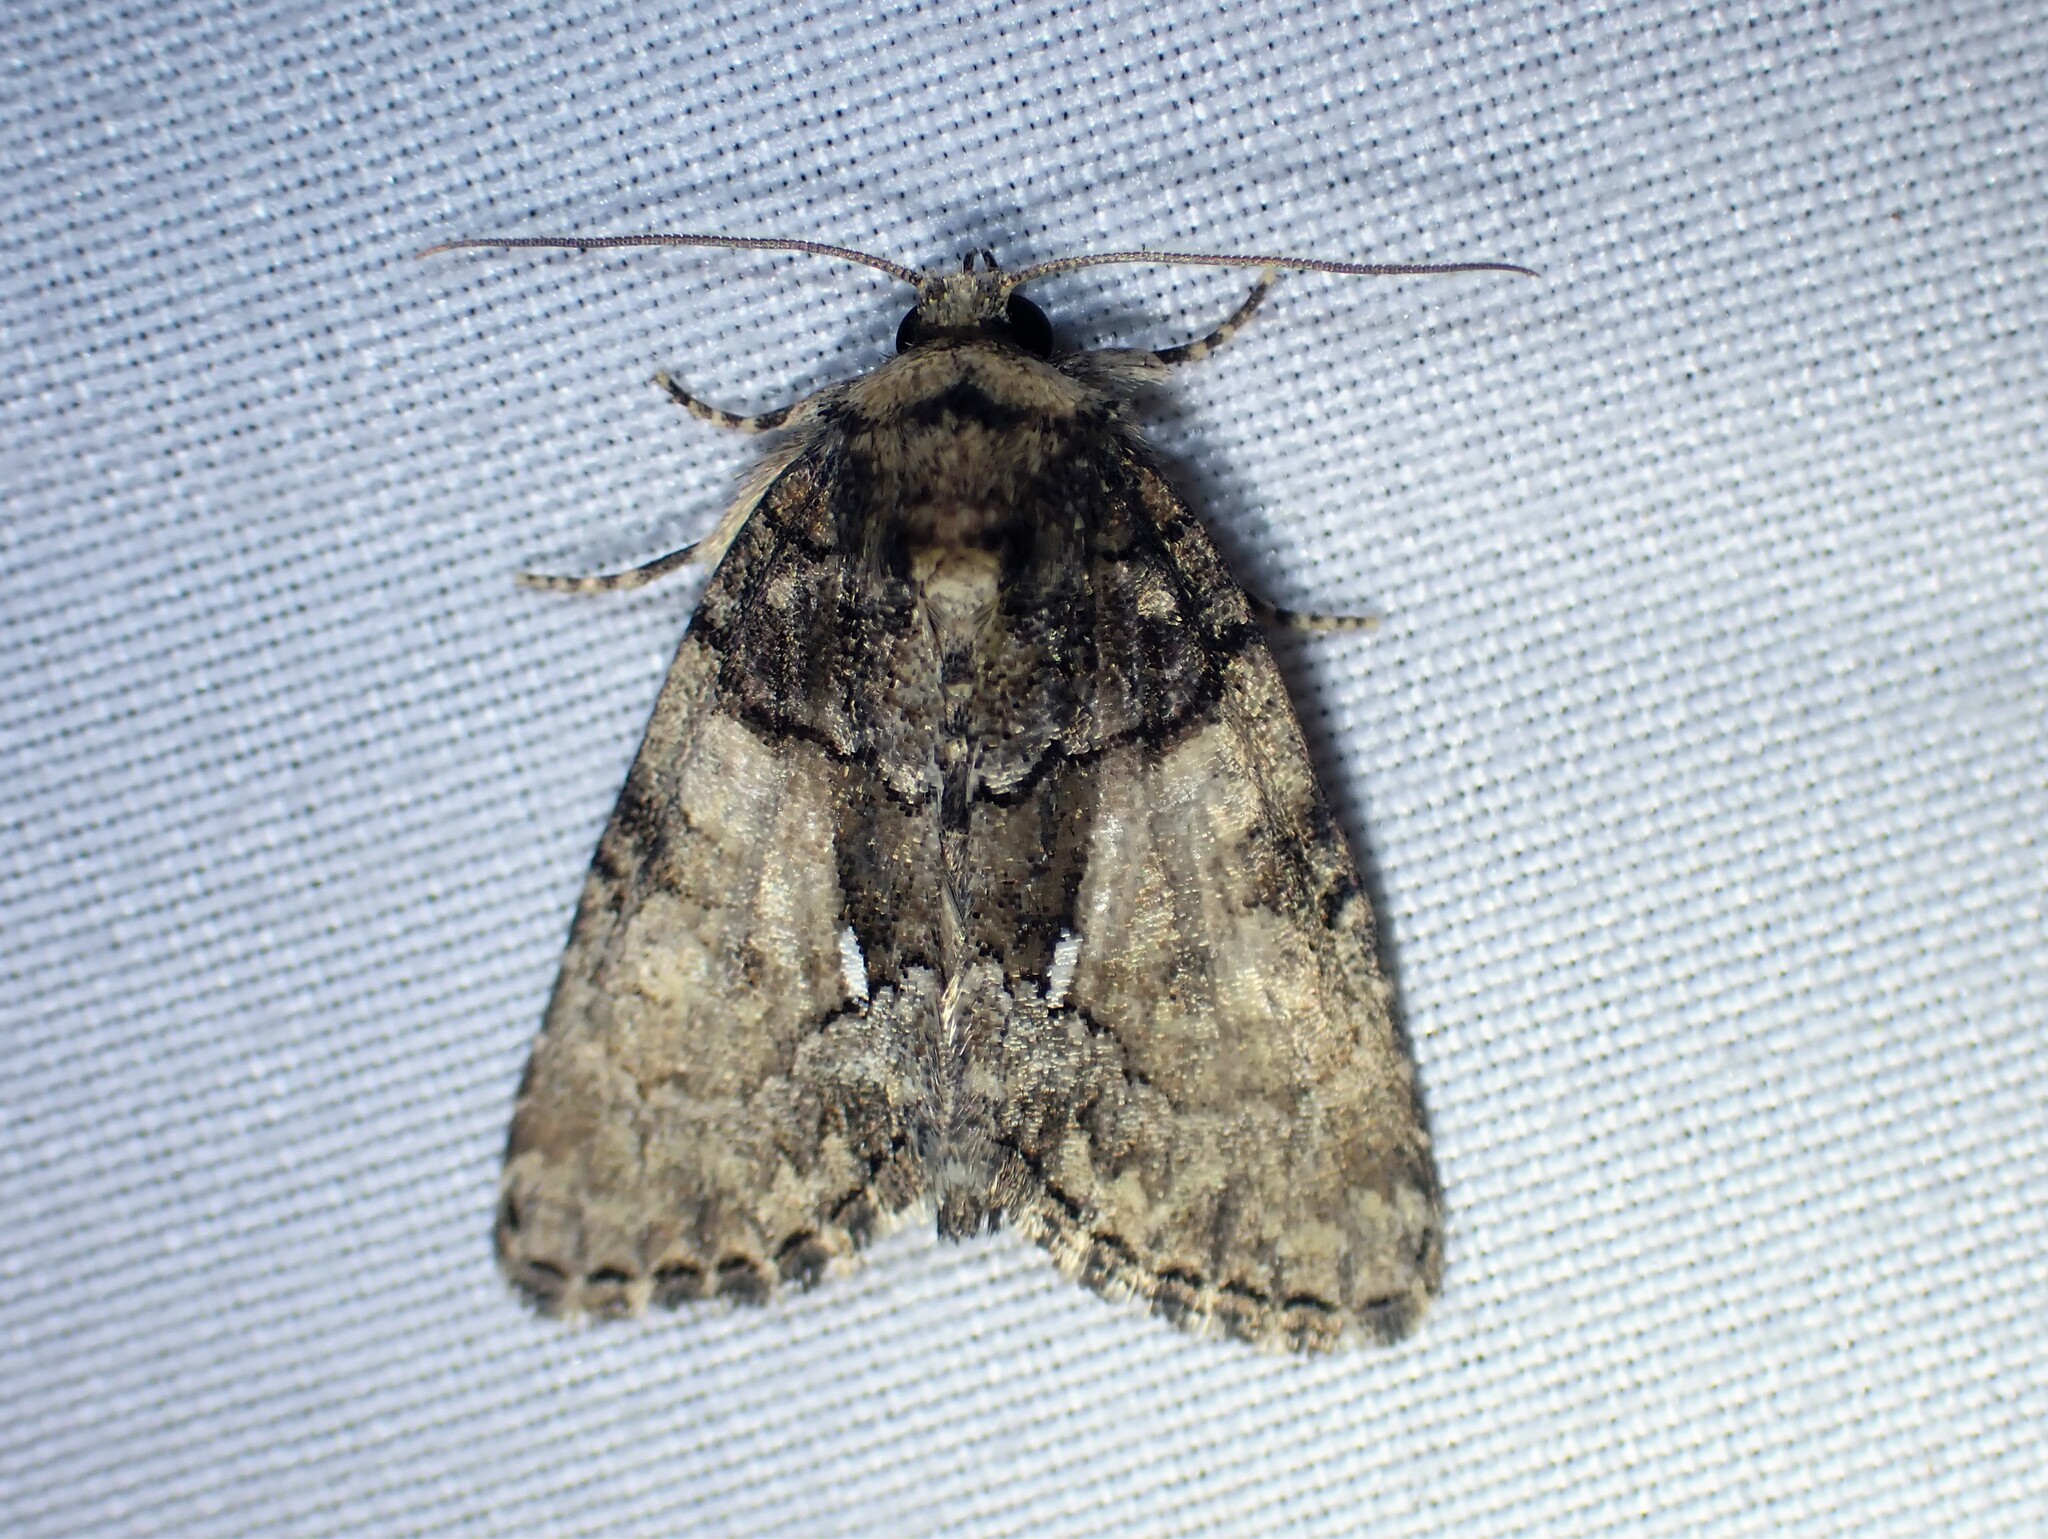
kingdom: Animalia
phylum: Arthropoda
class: Insecta
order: Lepidoptera
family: Noctuidae
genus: Chytonix
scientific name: Chytonix palliatricula
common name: Cloaked marvel
